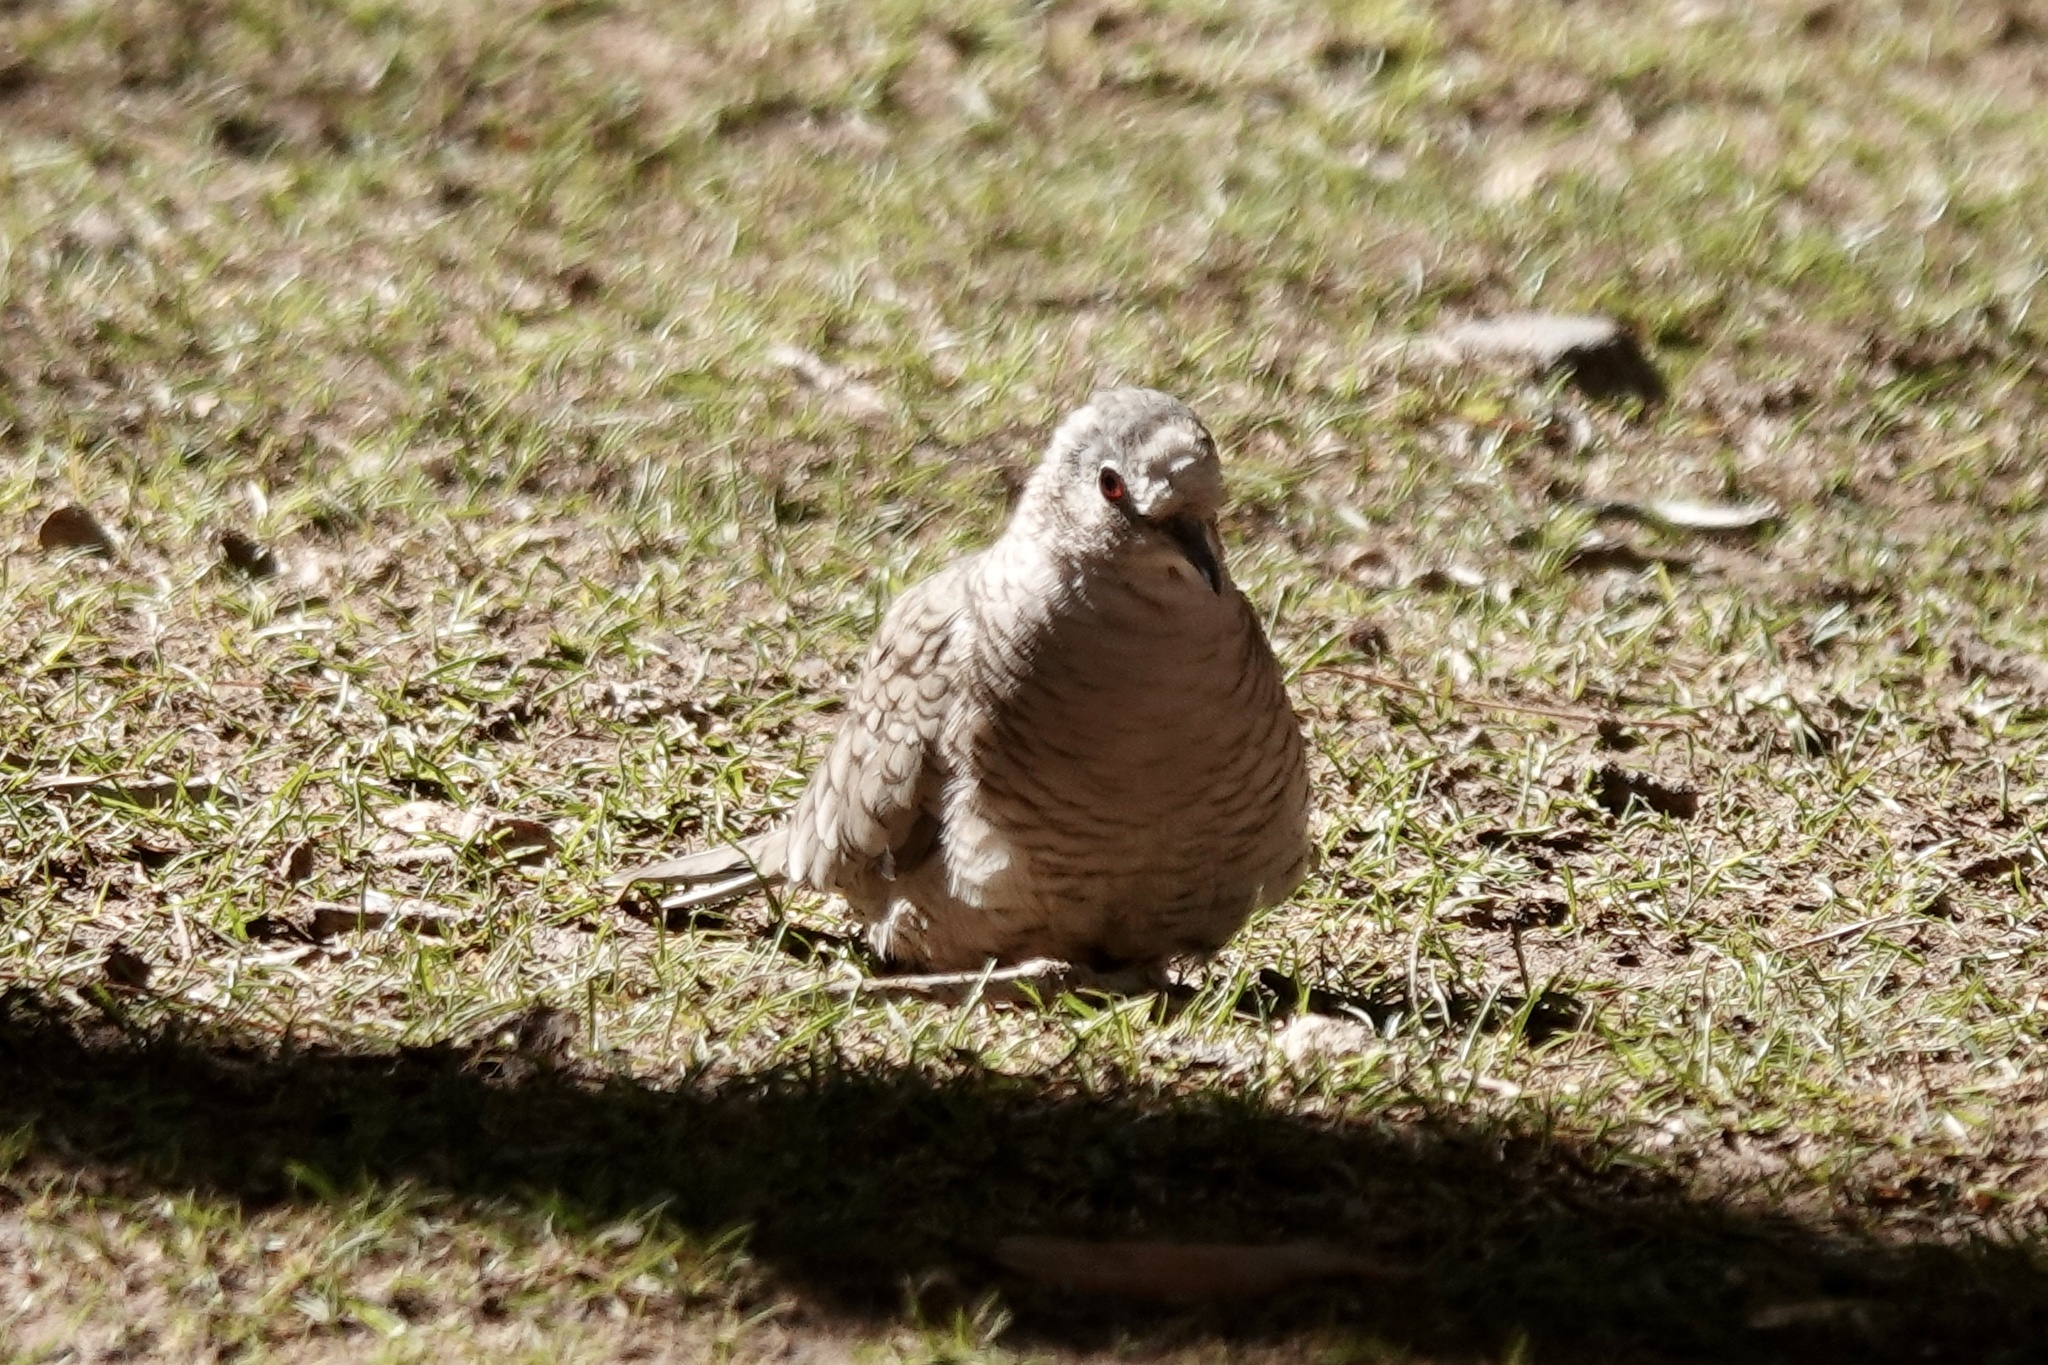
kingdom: Animalia
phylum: Chordata
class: Aves
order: Columbiformes
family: Columbidae
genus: Columbina
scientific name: Columbina inca
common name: Inca dove
